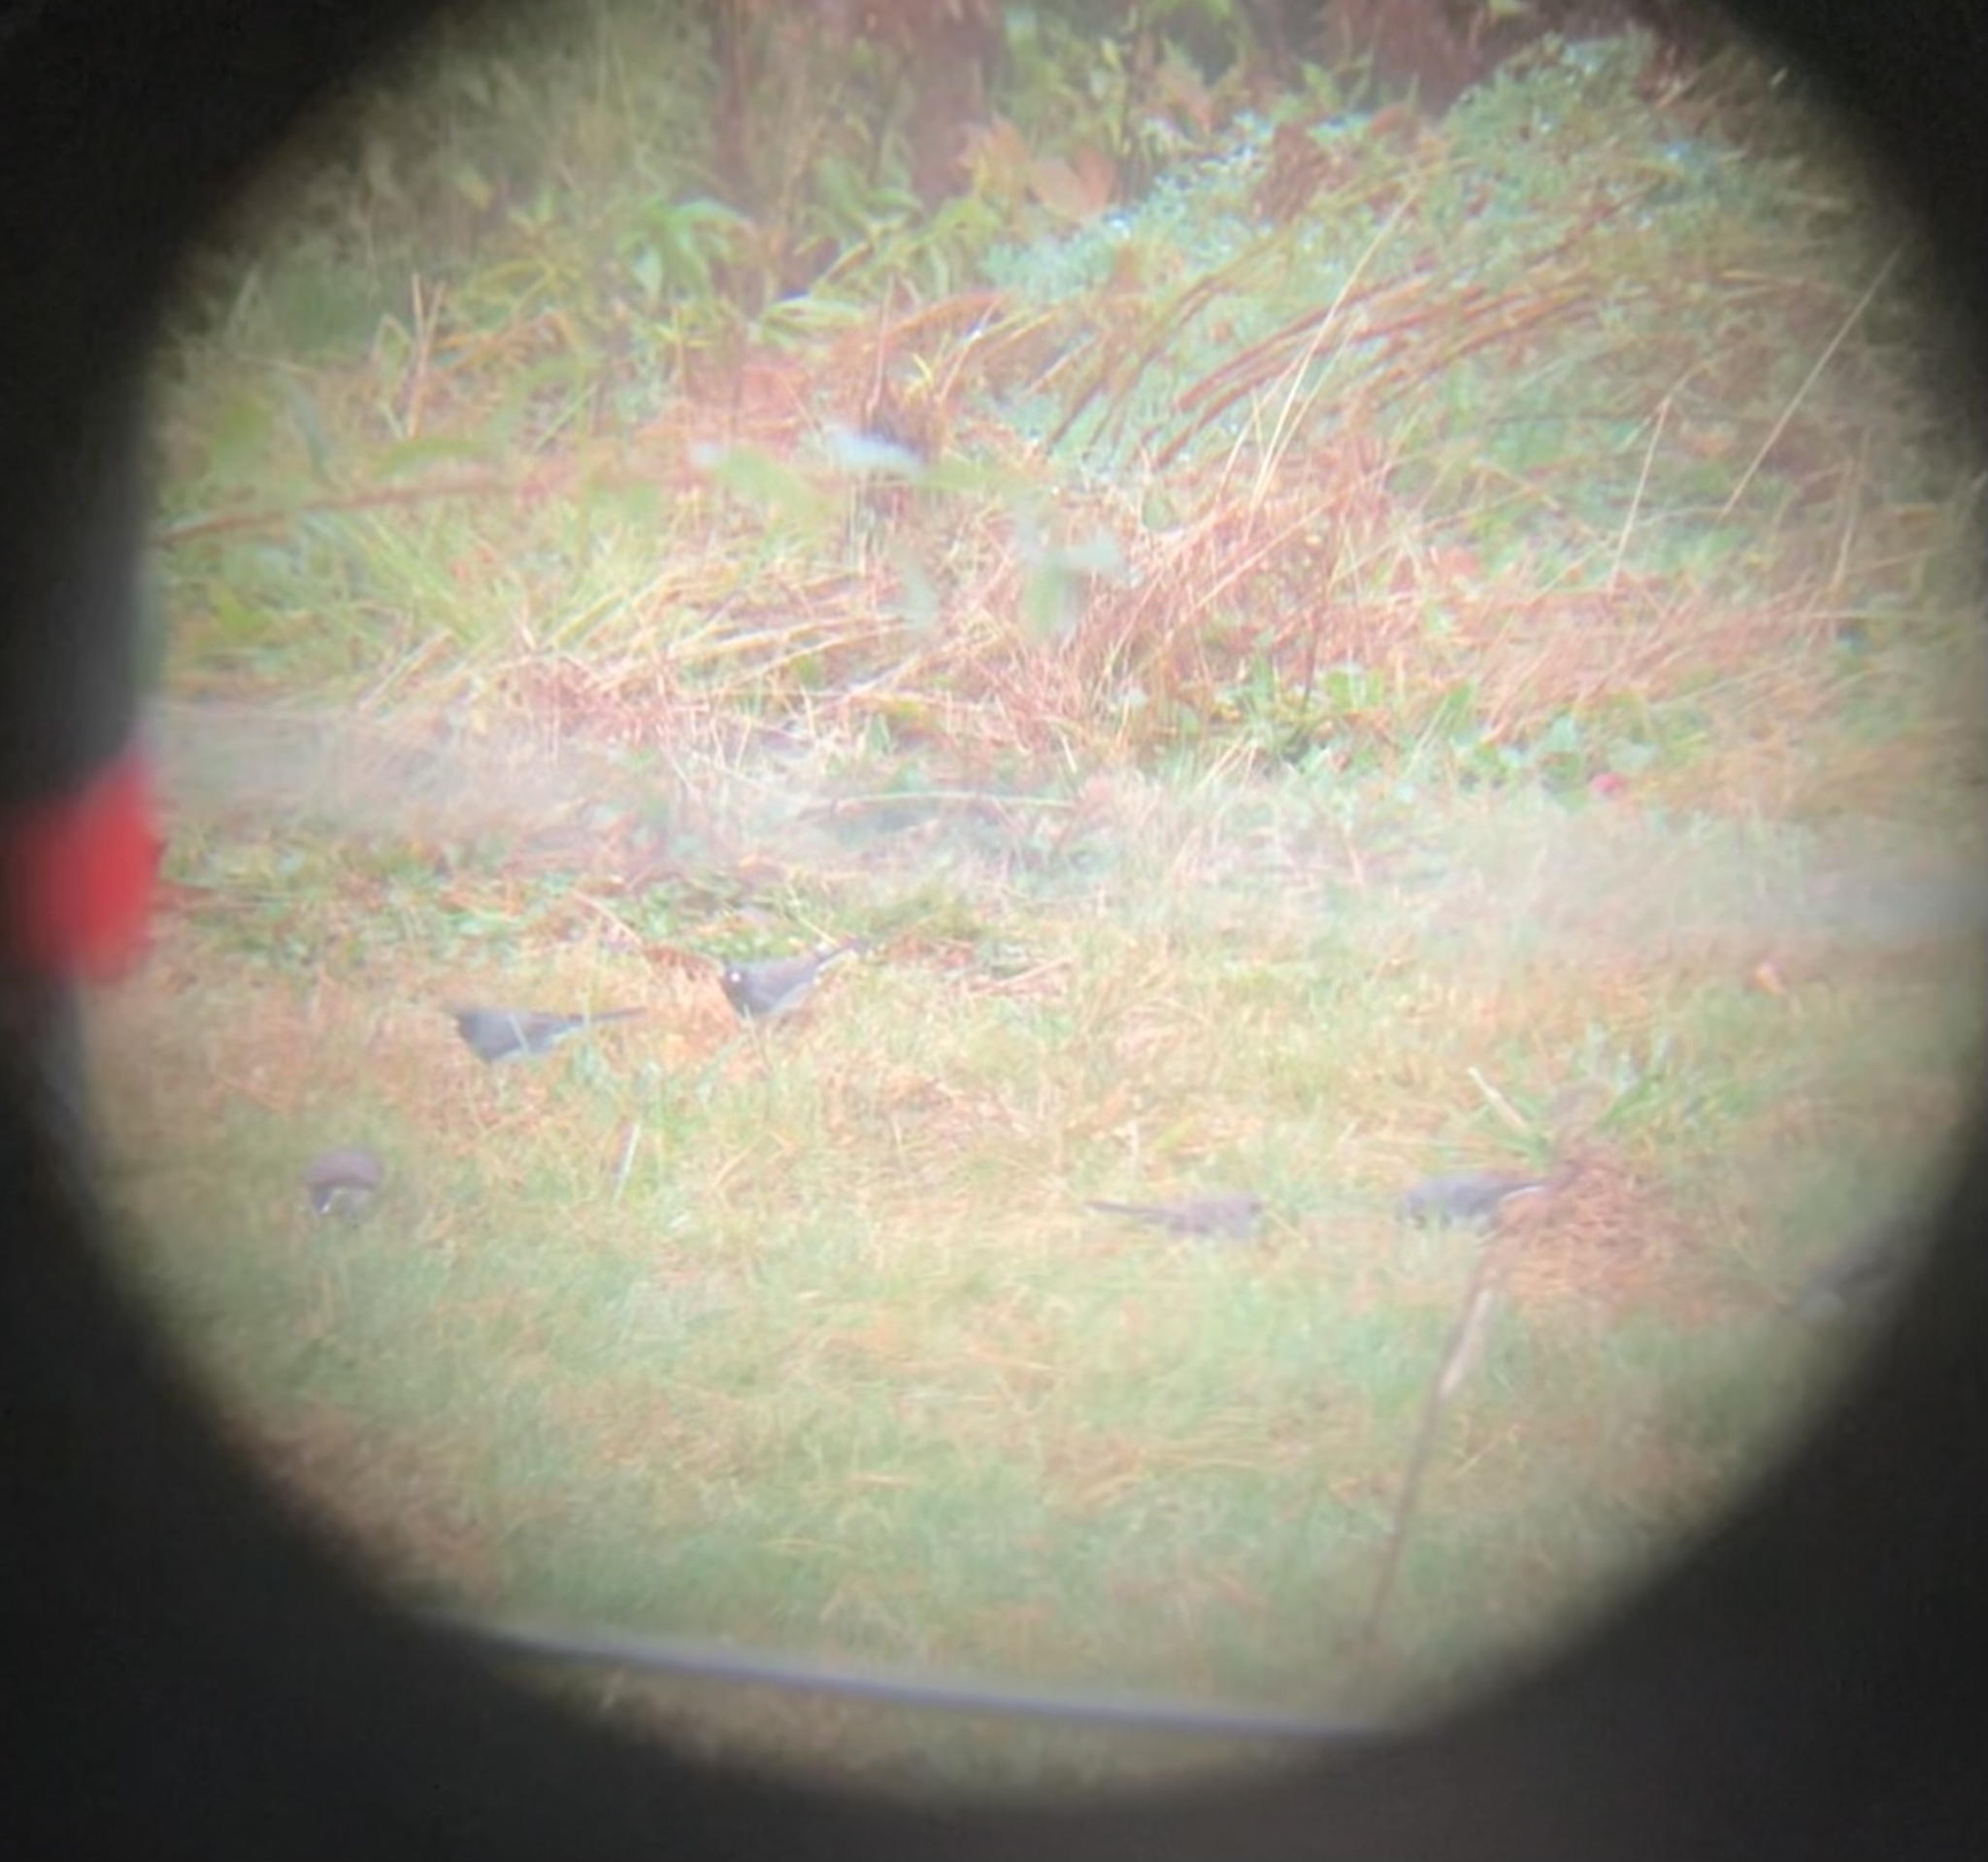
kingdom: Animalia
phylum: Chordata
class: Aves
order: Passeriformes
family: Passerellidae
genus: Junco
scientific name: Junco hyemalis
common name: Dark-eyed junco
